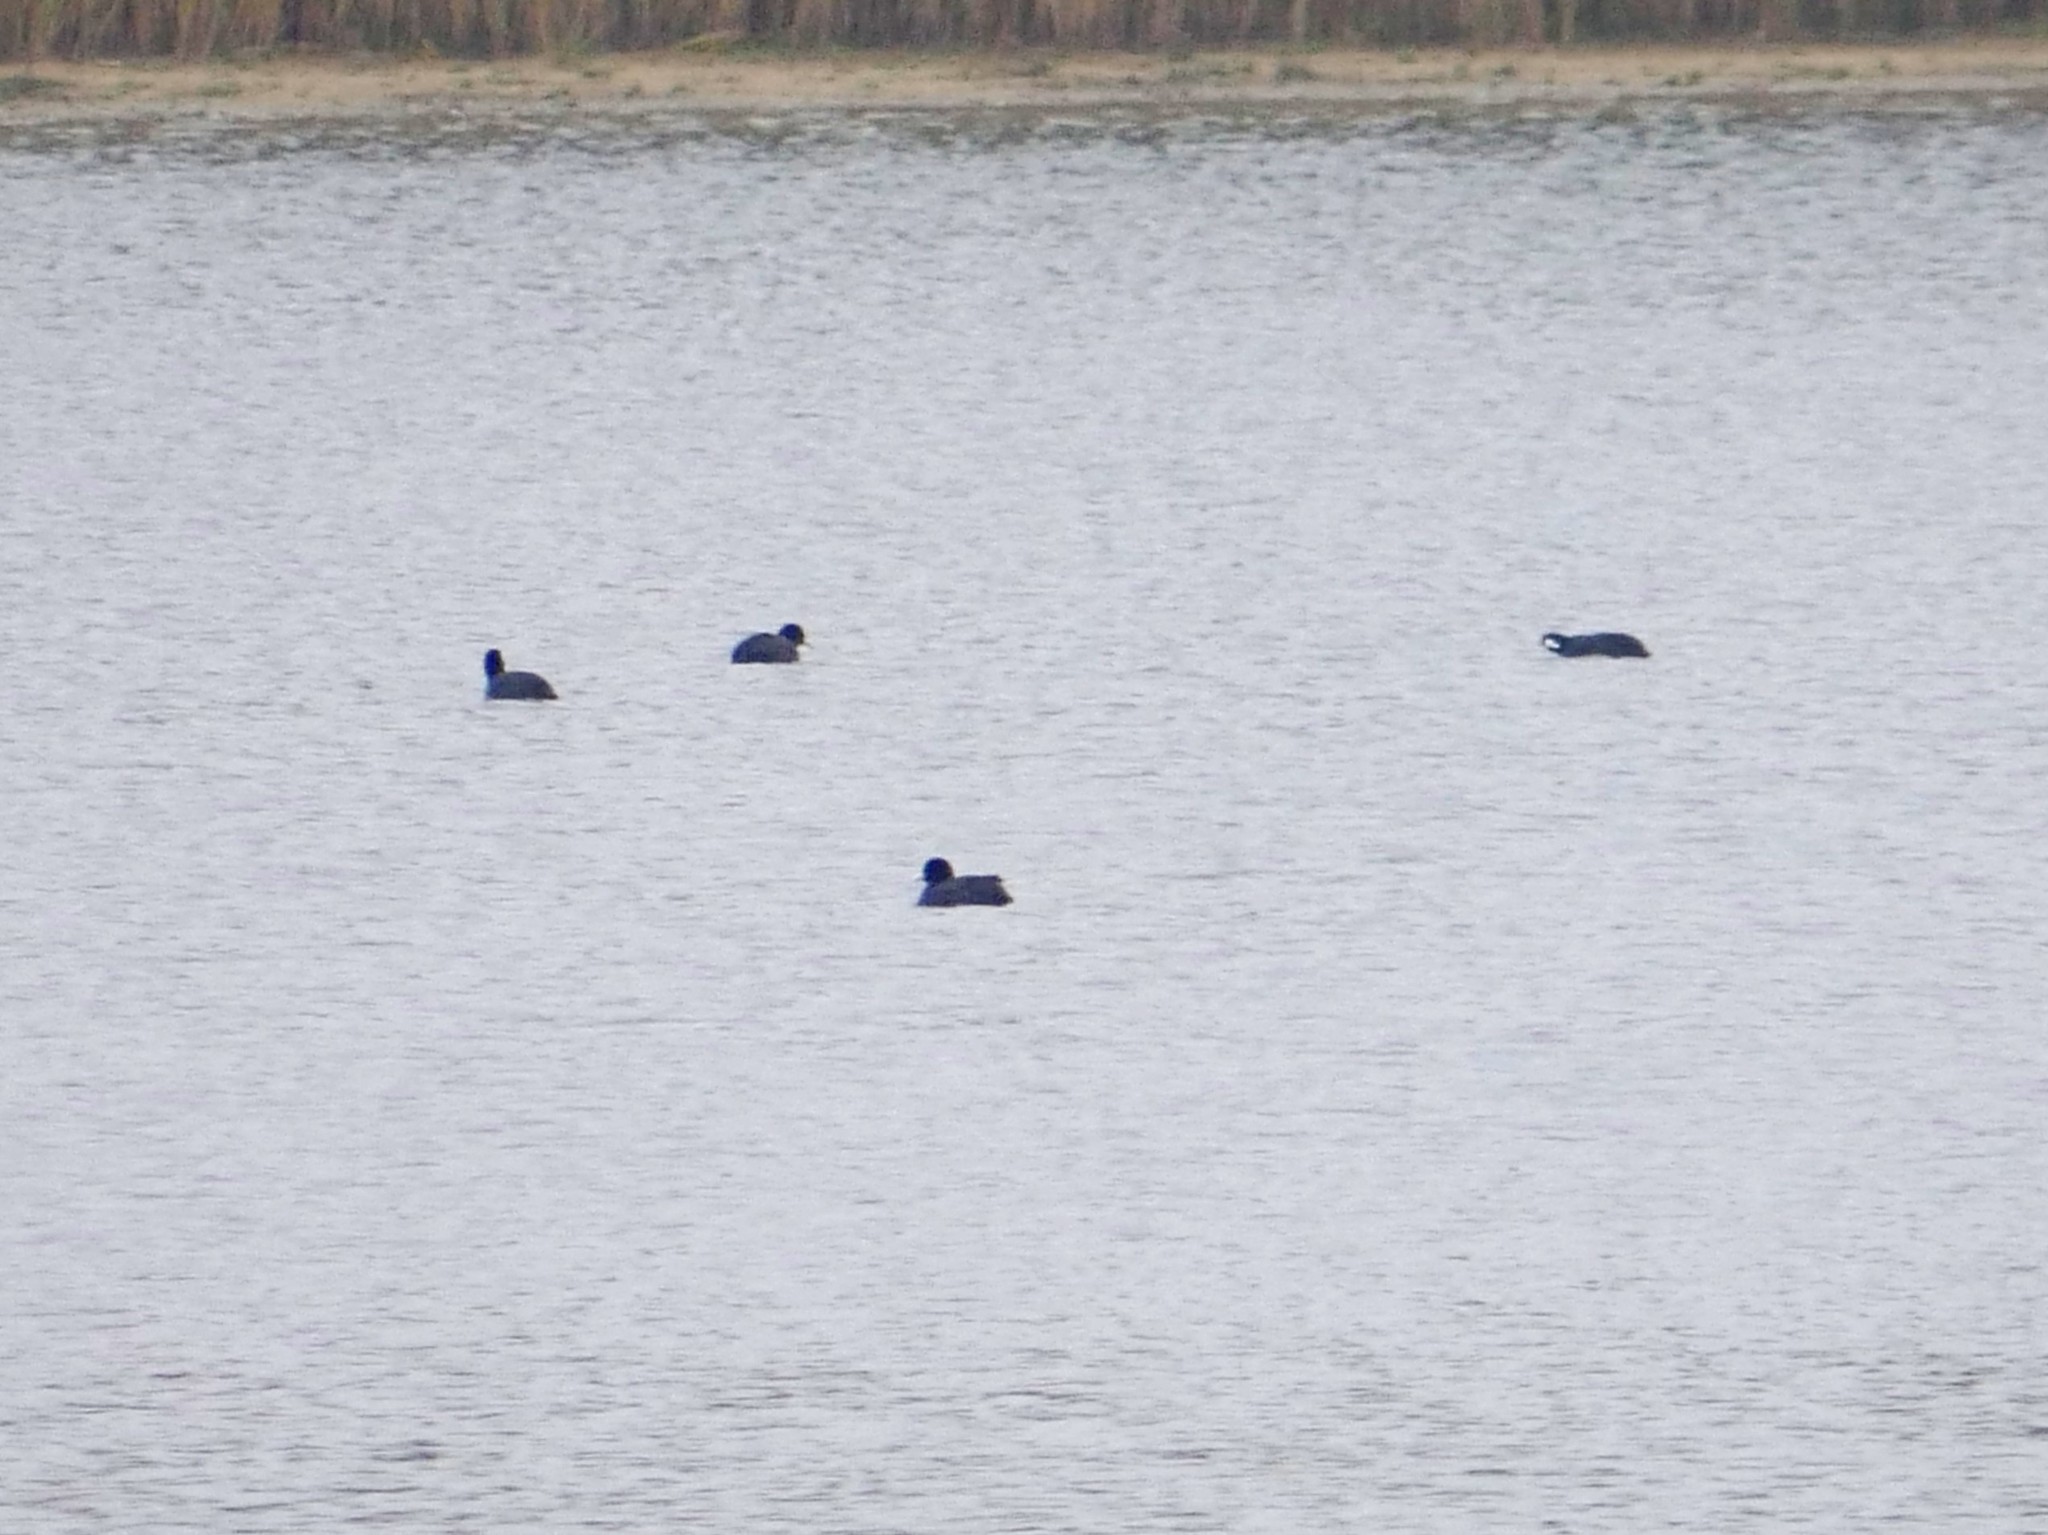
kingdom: Animalia
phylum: Chordata
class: Aves
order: Gruiformes
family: Rallidae
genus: Fulica
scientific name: Fulica atra
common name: Eurasian coot
